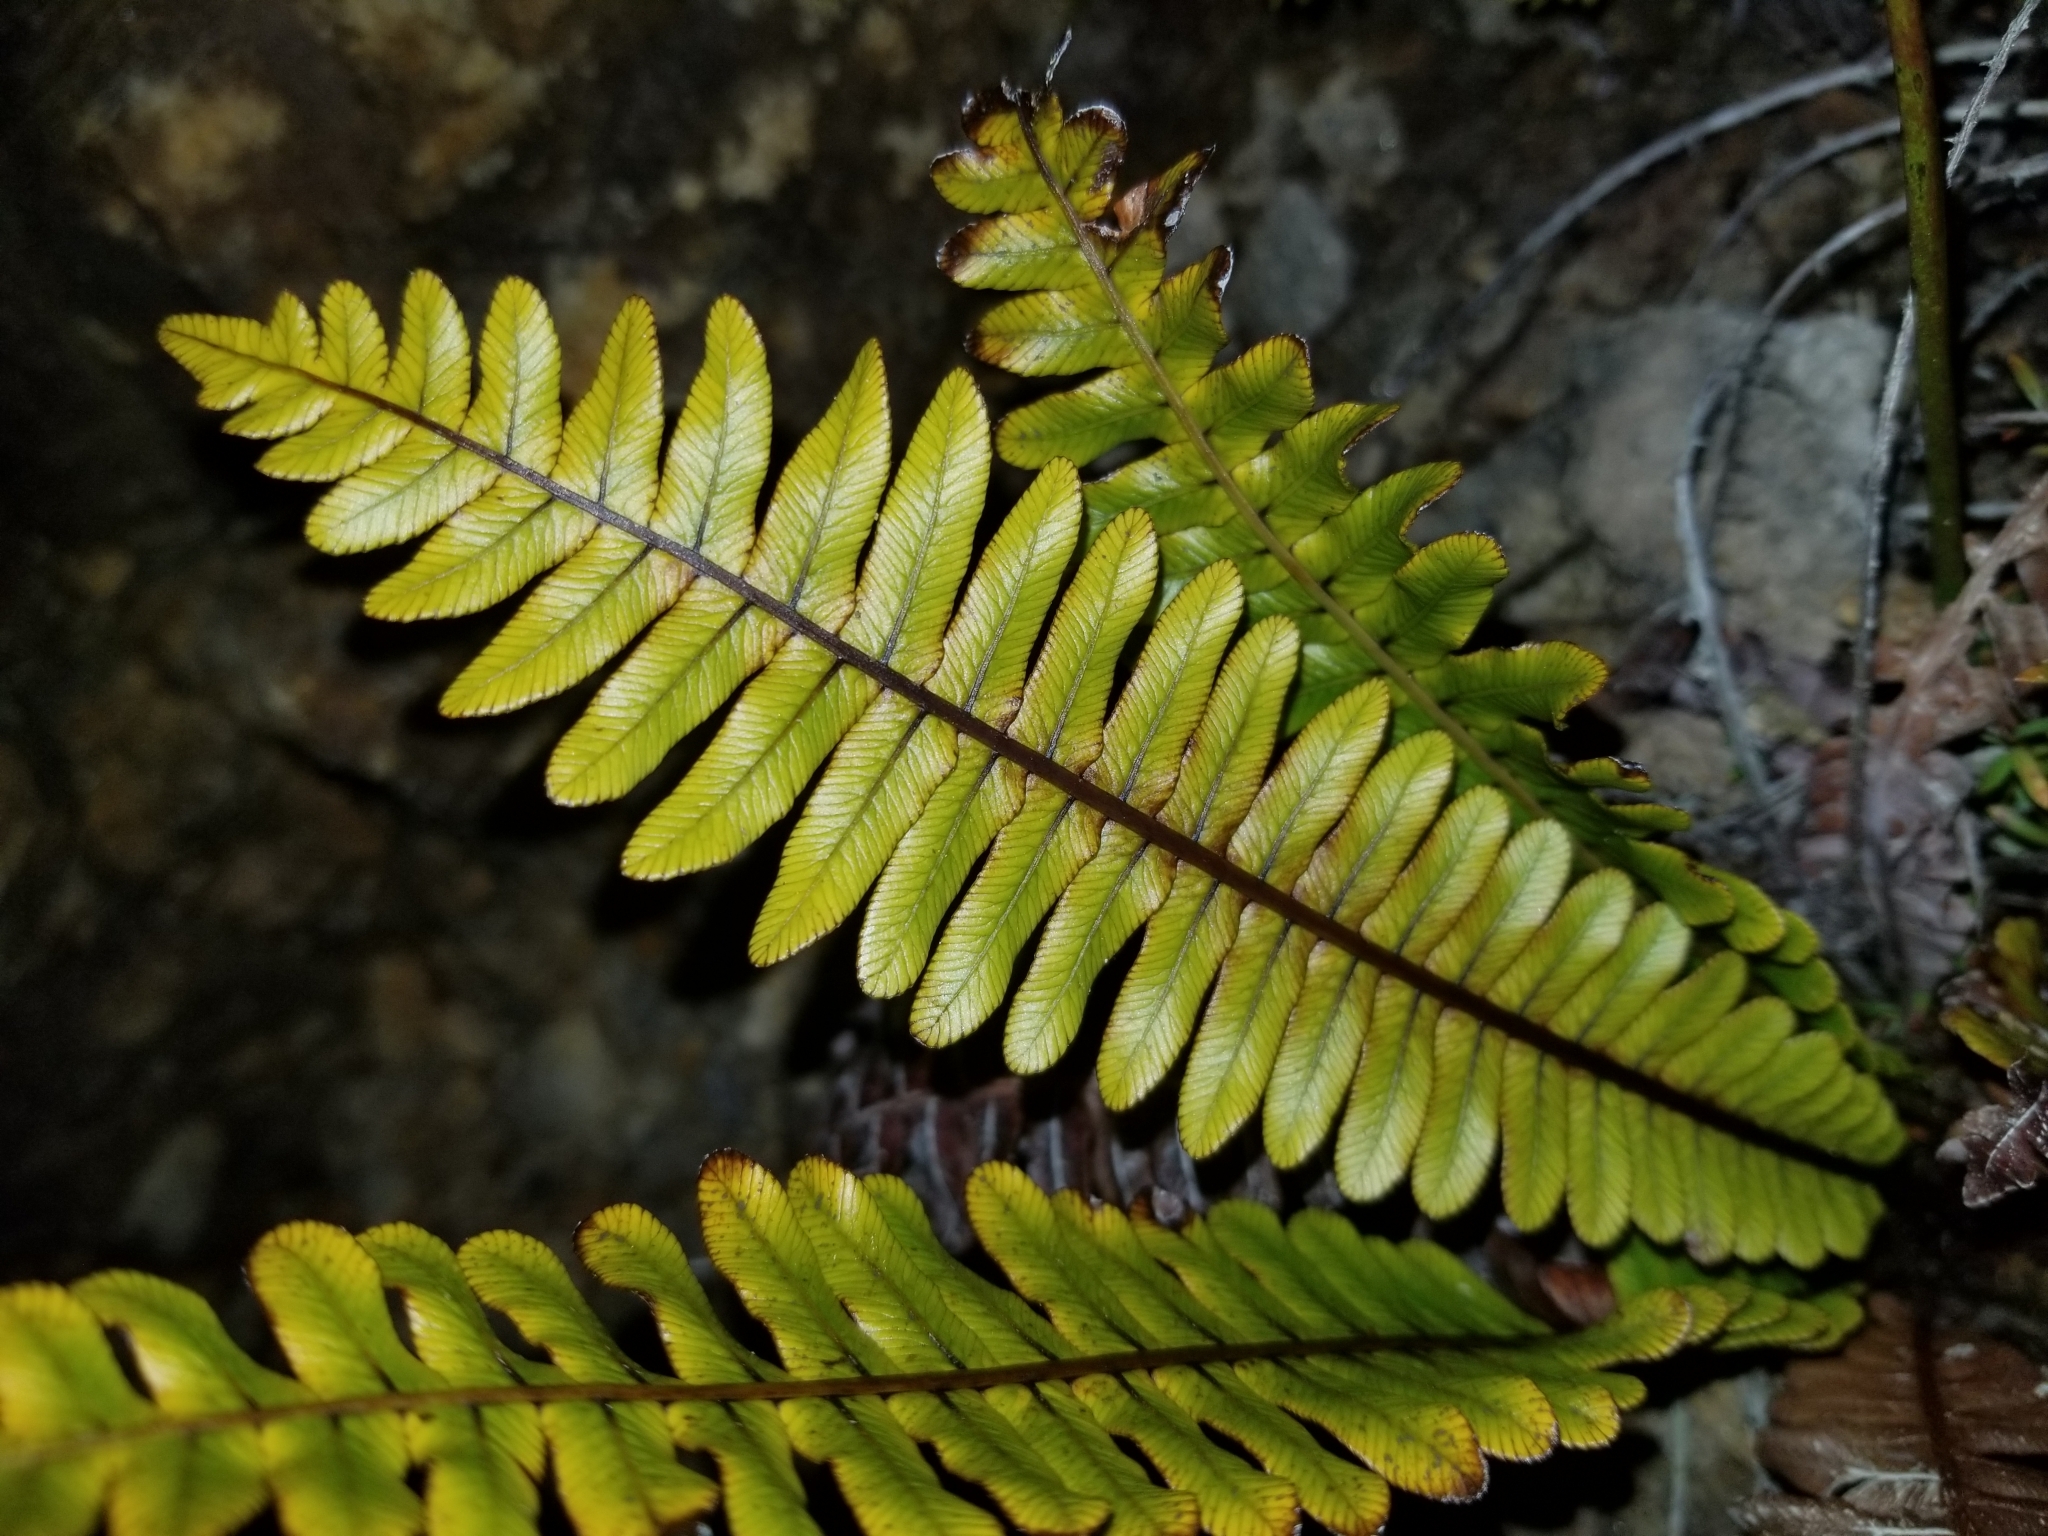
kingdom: Plantae
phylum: Tracheophyta
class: Polypodiopsida
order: Polypodiales
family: Blechnaceae
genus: Lomaria
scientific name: Lomaria discolor
